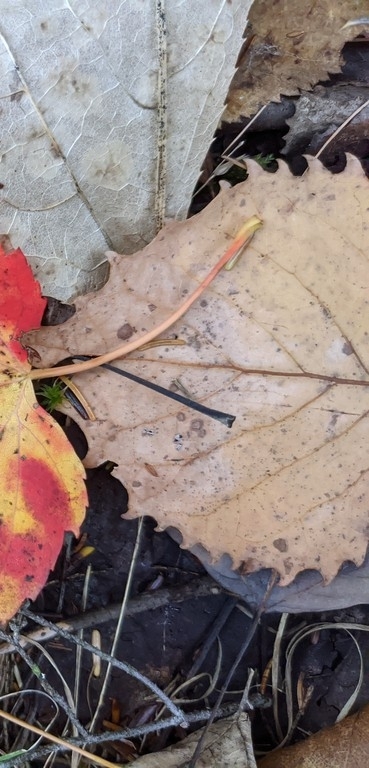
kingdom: Plantae
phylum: Tracheophyta
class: Magnoliopsida
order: Malpighiales
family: Salicaceae
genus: Populus
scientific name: Populus grandidentata
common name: Bigtooth aspen
